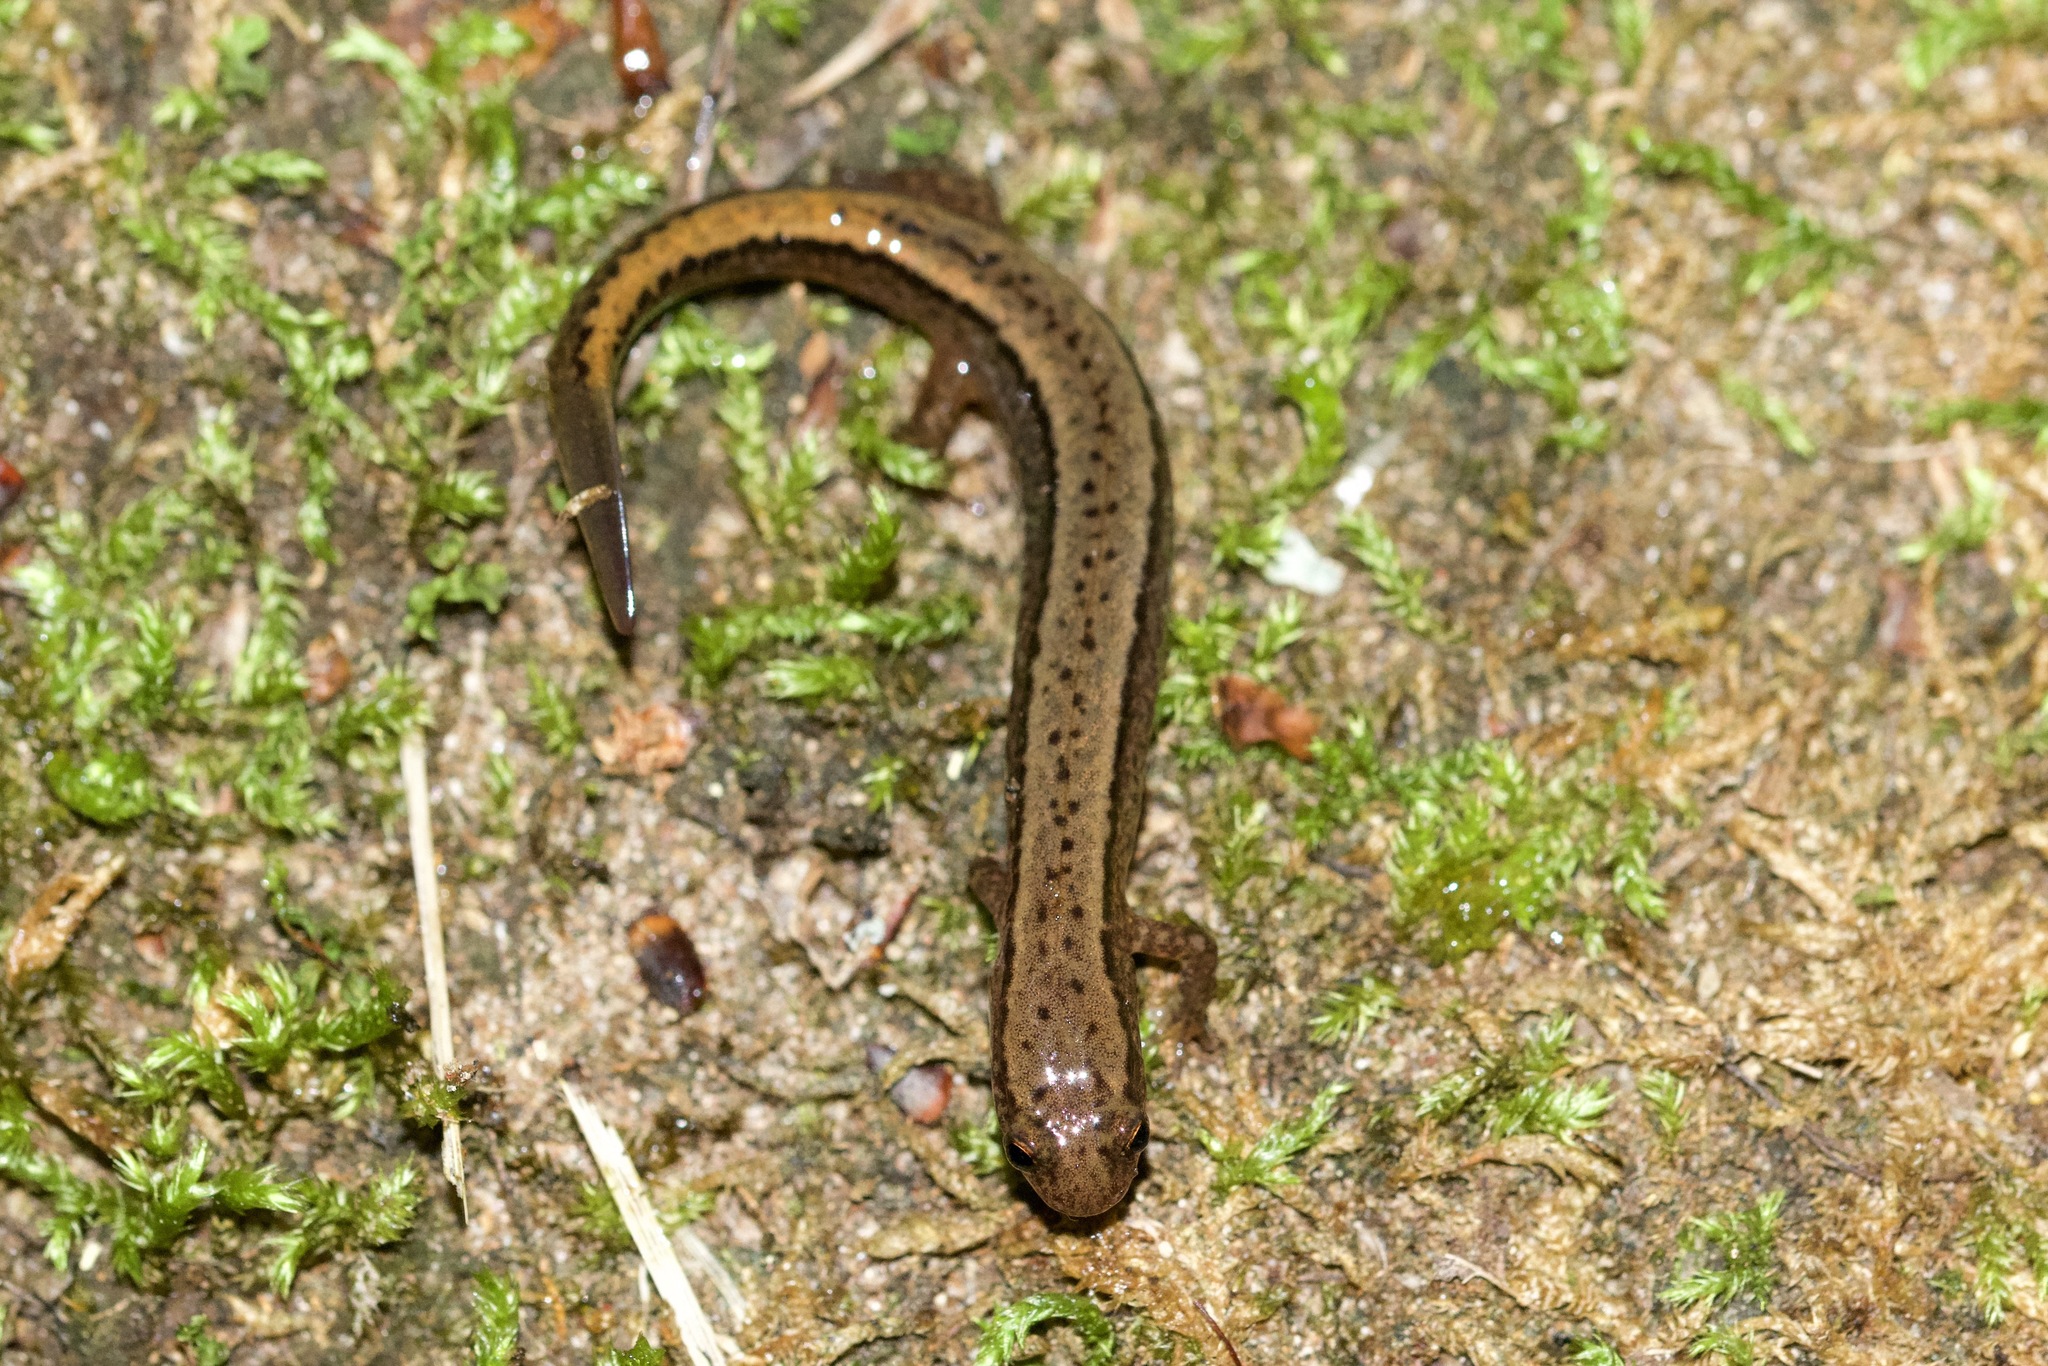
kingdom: Animalia
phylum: Chordata
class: Amphibia
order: Caudata
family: Plethodontidae
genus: Eurycea
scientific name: Eurycea bislineata
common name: Northern two-lined salamander
